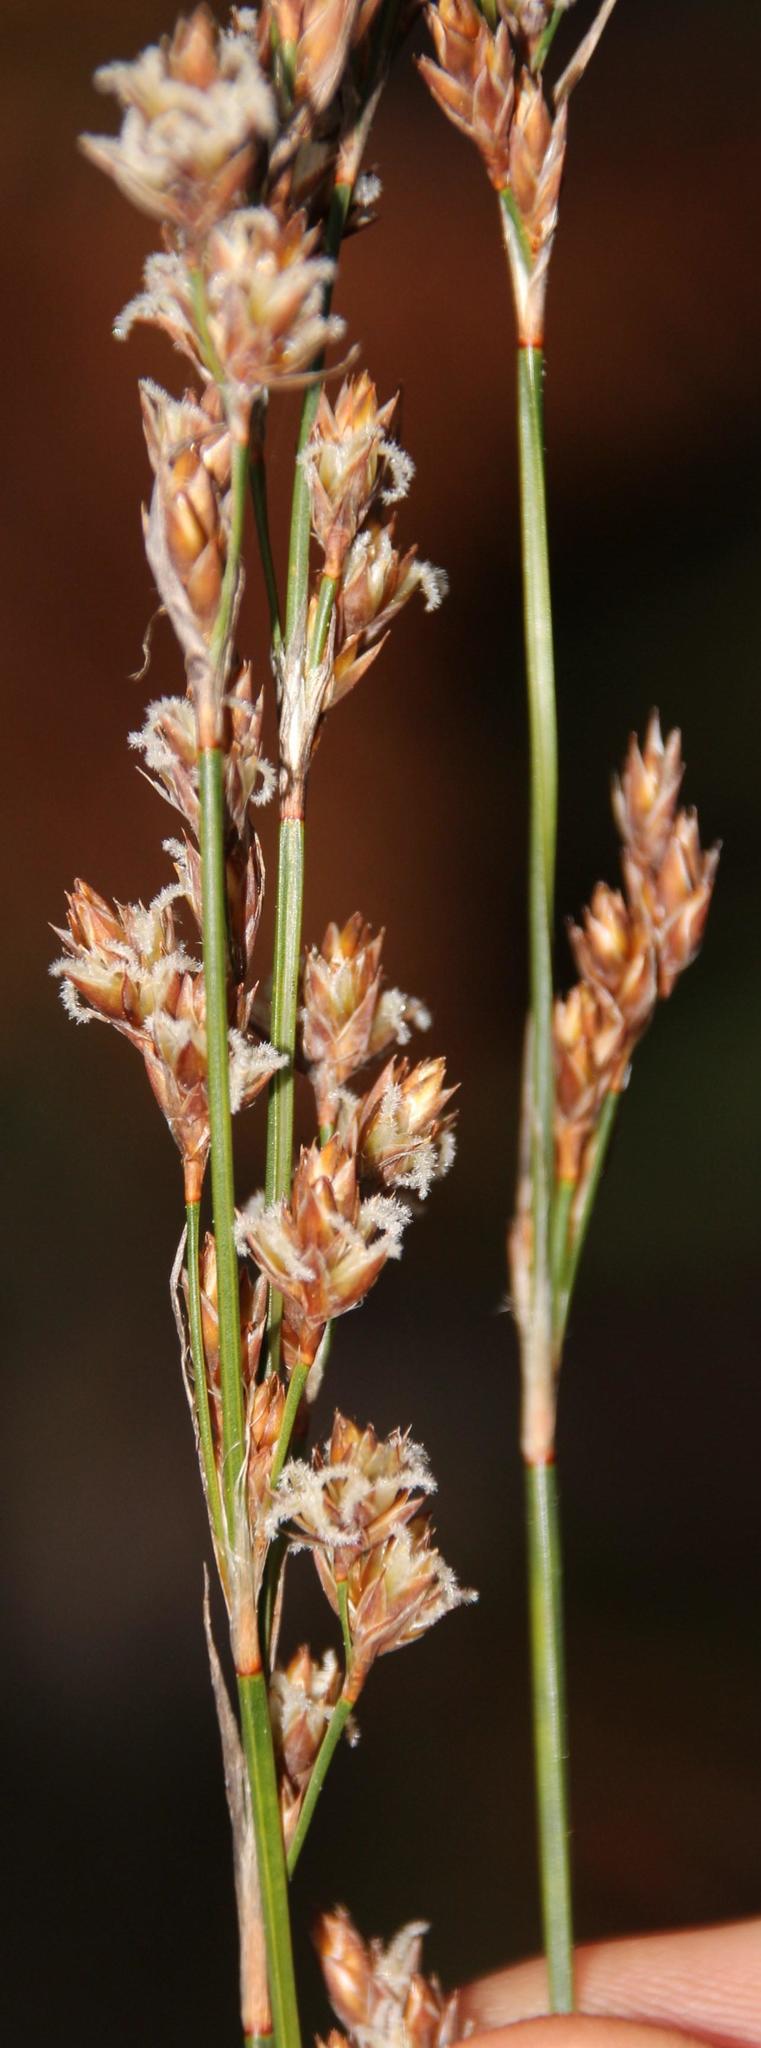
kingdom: Plantae
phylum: Tracheophyta
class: Liliopsida
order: Poales
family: Restionaceae
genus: Restio
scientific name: Restio tetragonus
